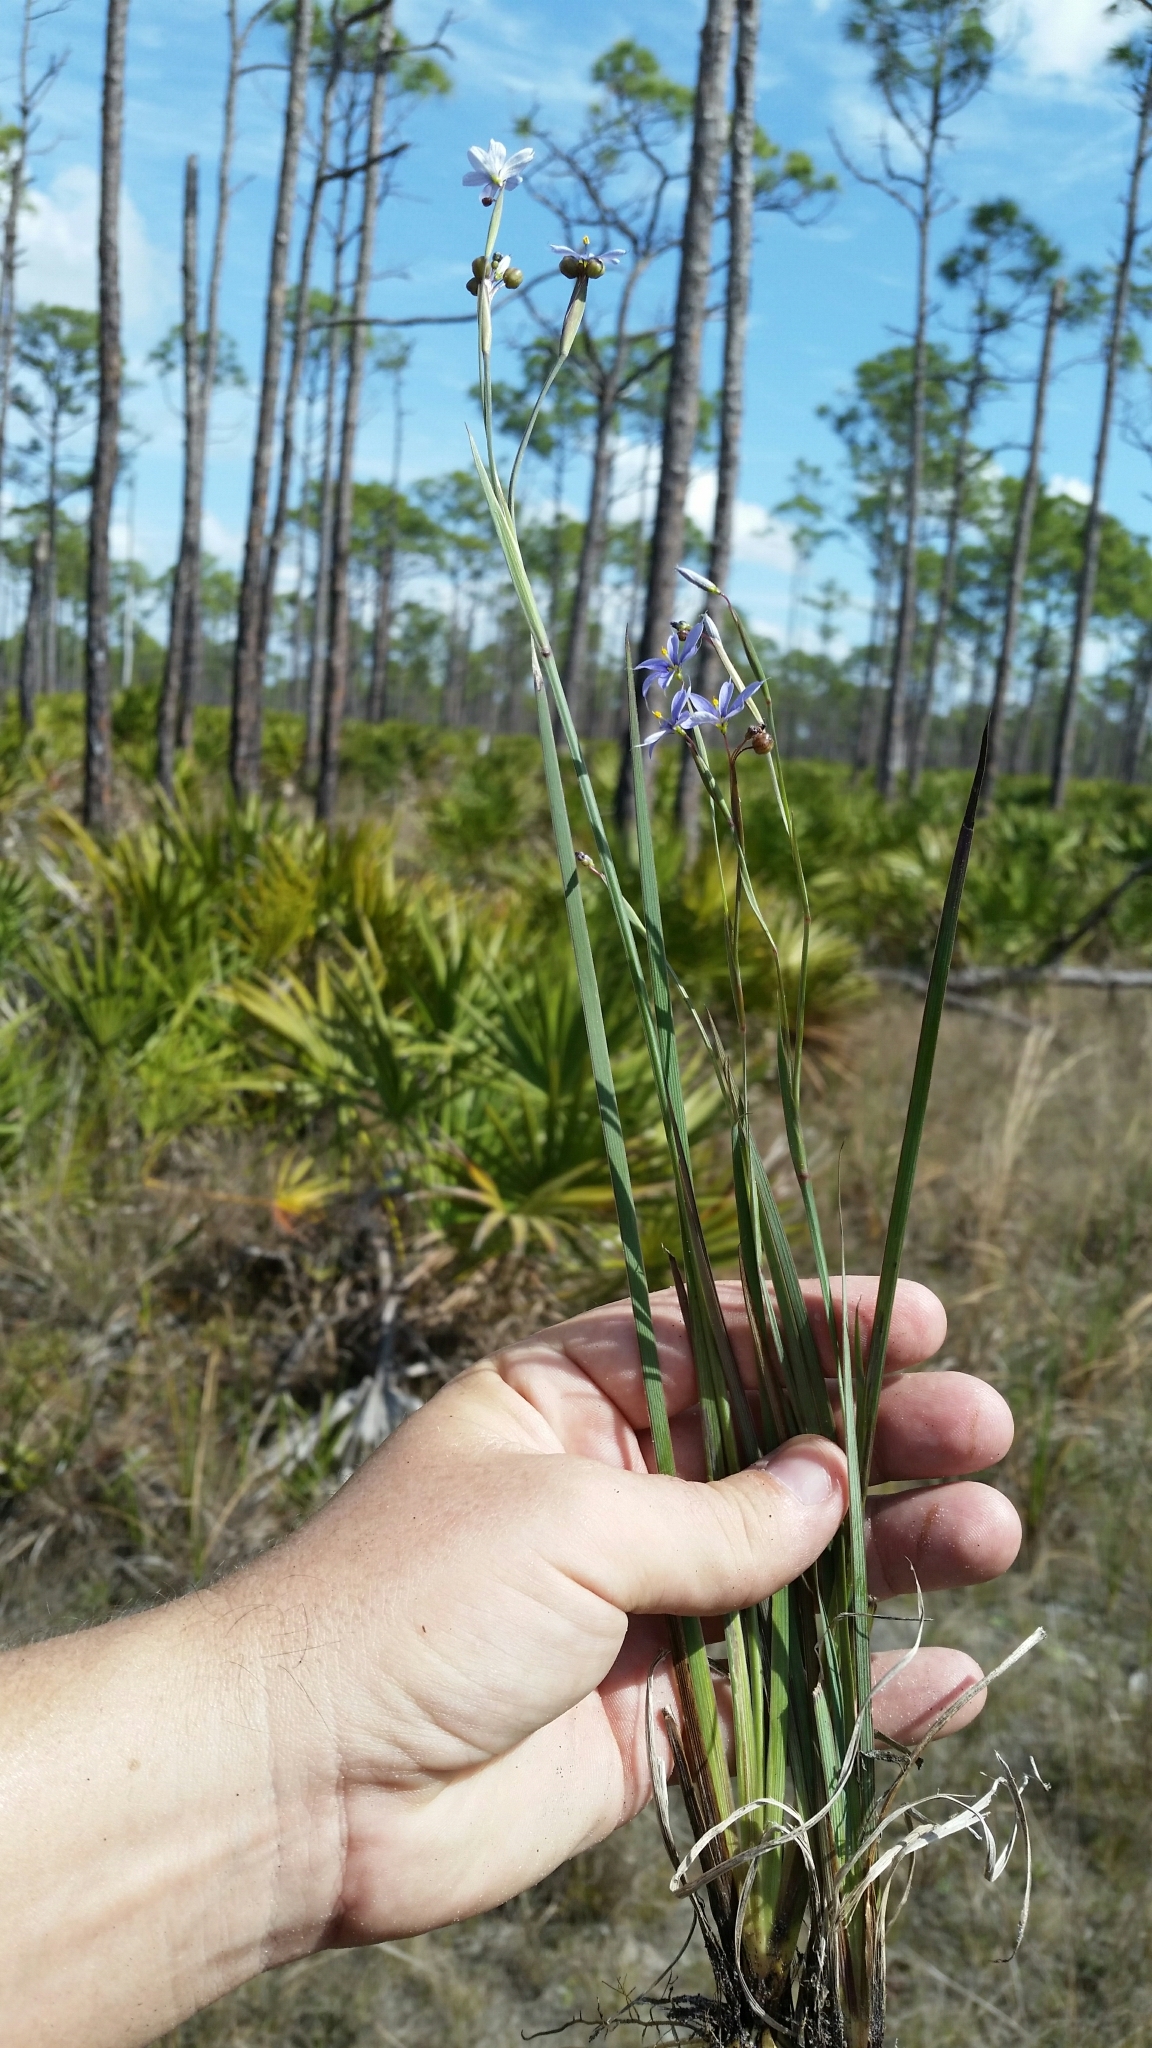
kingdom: Plantae
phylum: Tracheophyta
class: Liliopsida
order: Asparagales
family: Iridaceae
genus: Sisyrinchium
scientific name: Sisyrinchium nashii
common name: Nash's blue-eyed-grass
